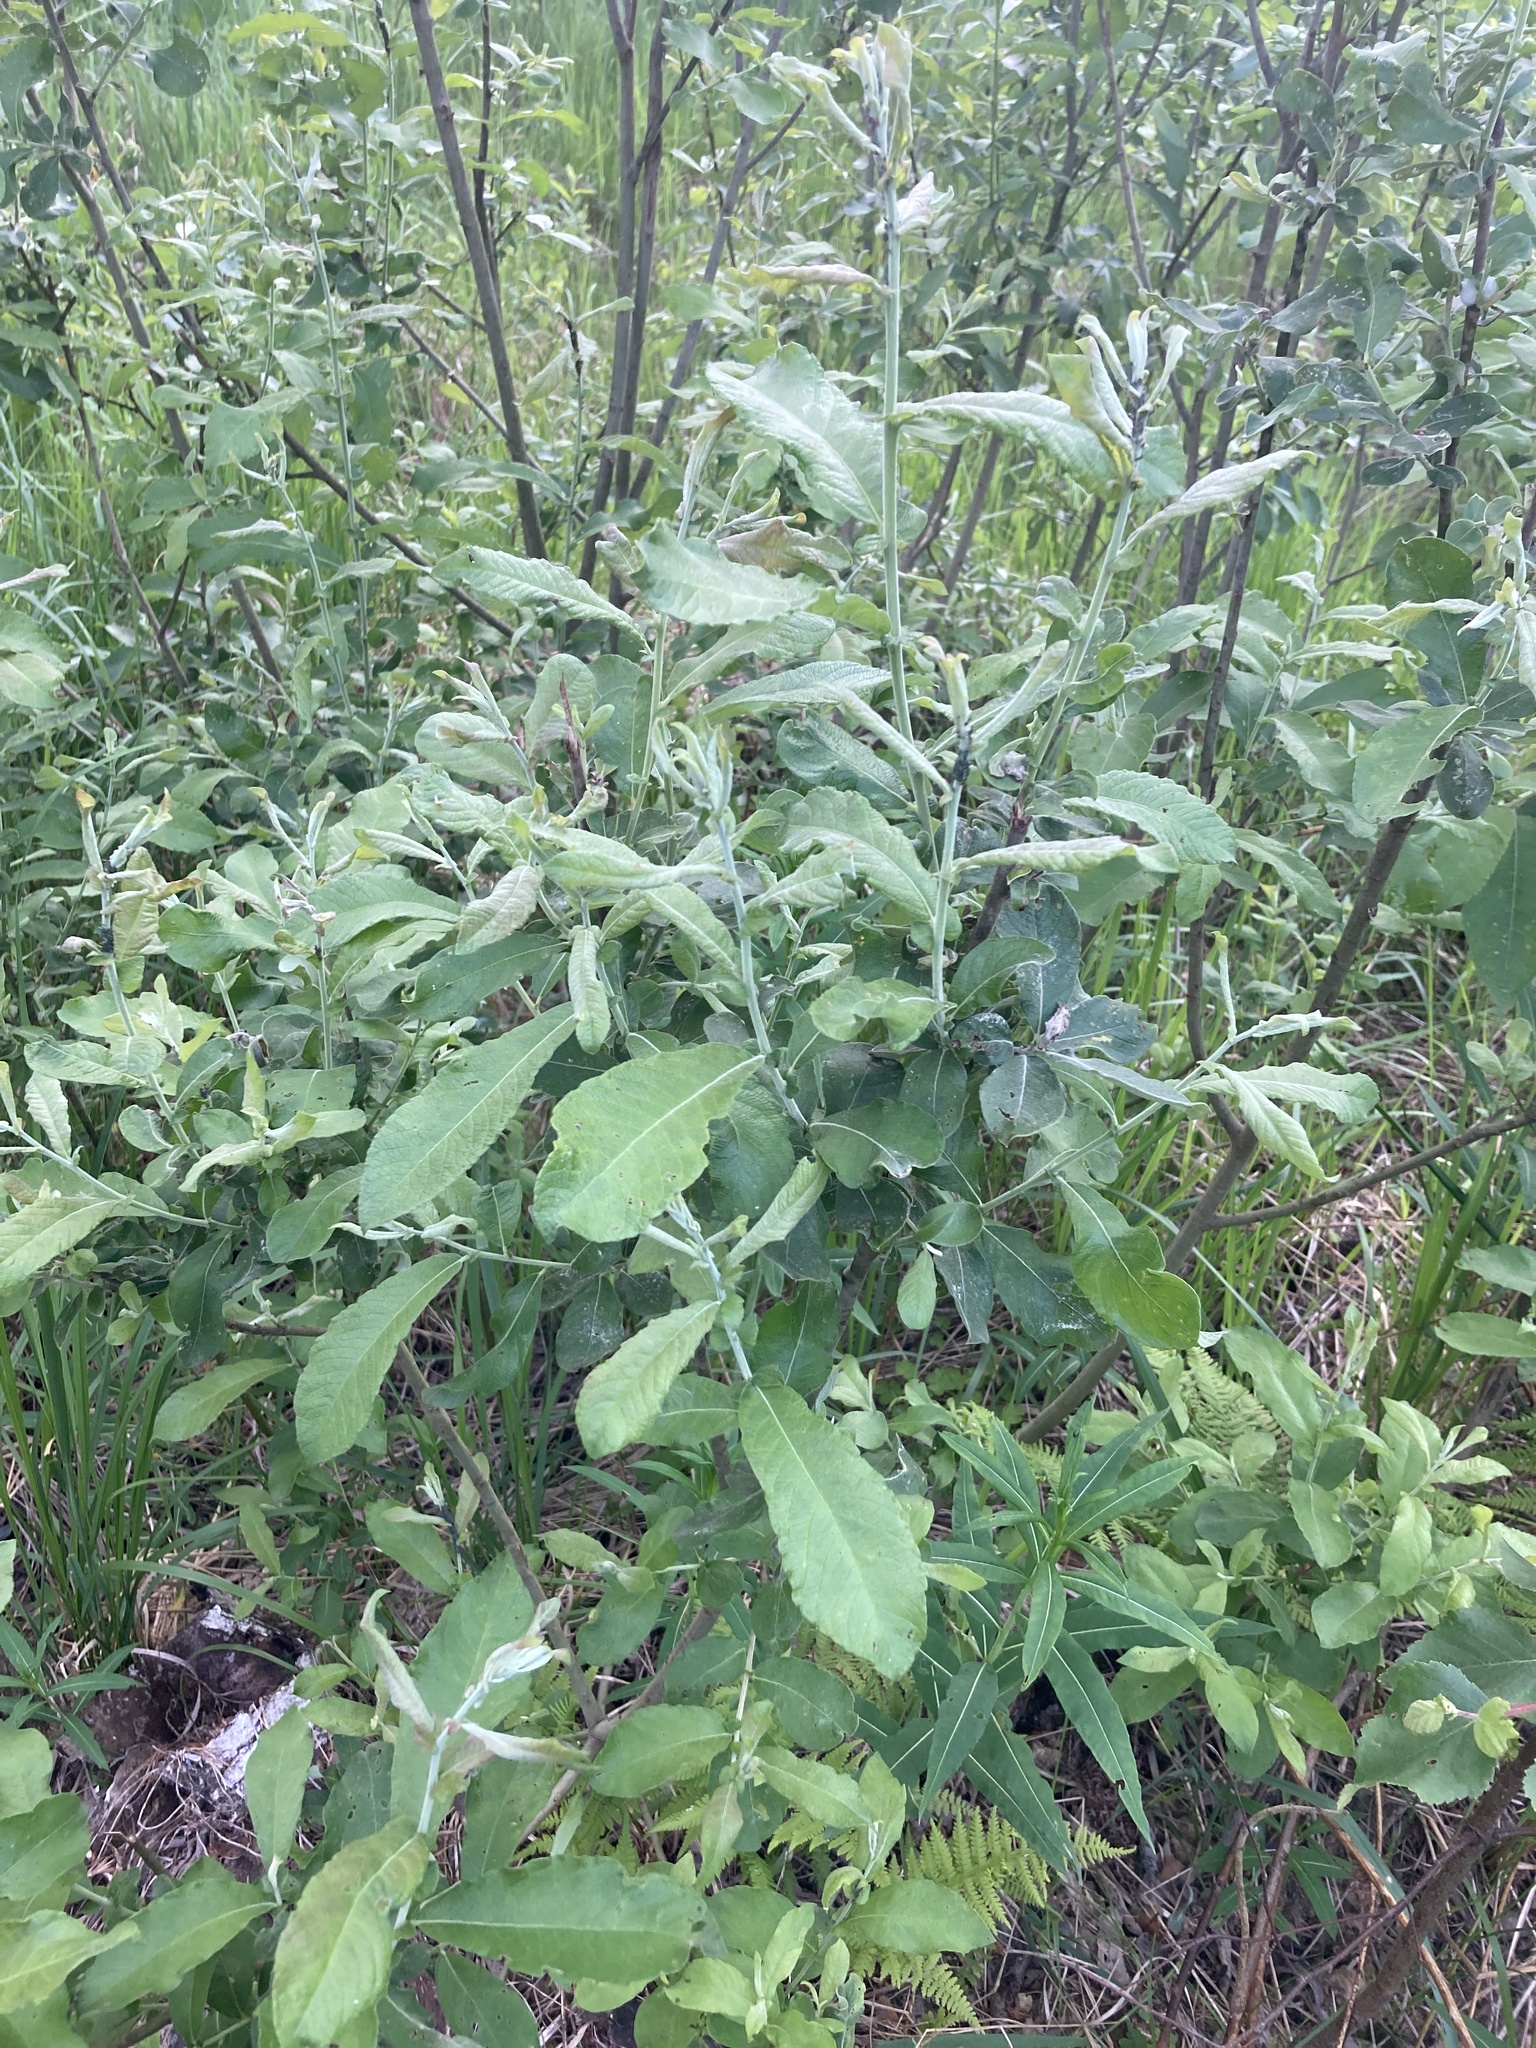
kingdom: Plantae
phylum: Tracheophyta
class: Magnoliopsida
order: Malpighiales
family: Salicaceae
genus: Salix
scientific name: Salix cinerea
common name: Common sallow
